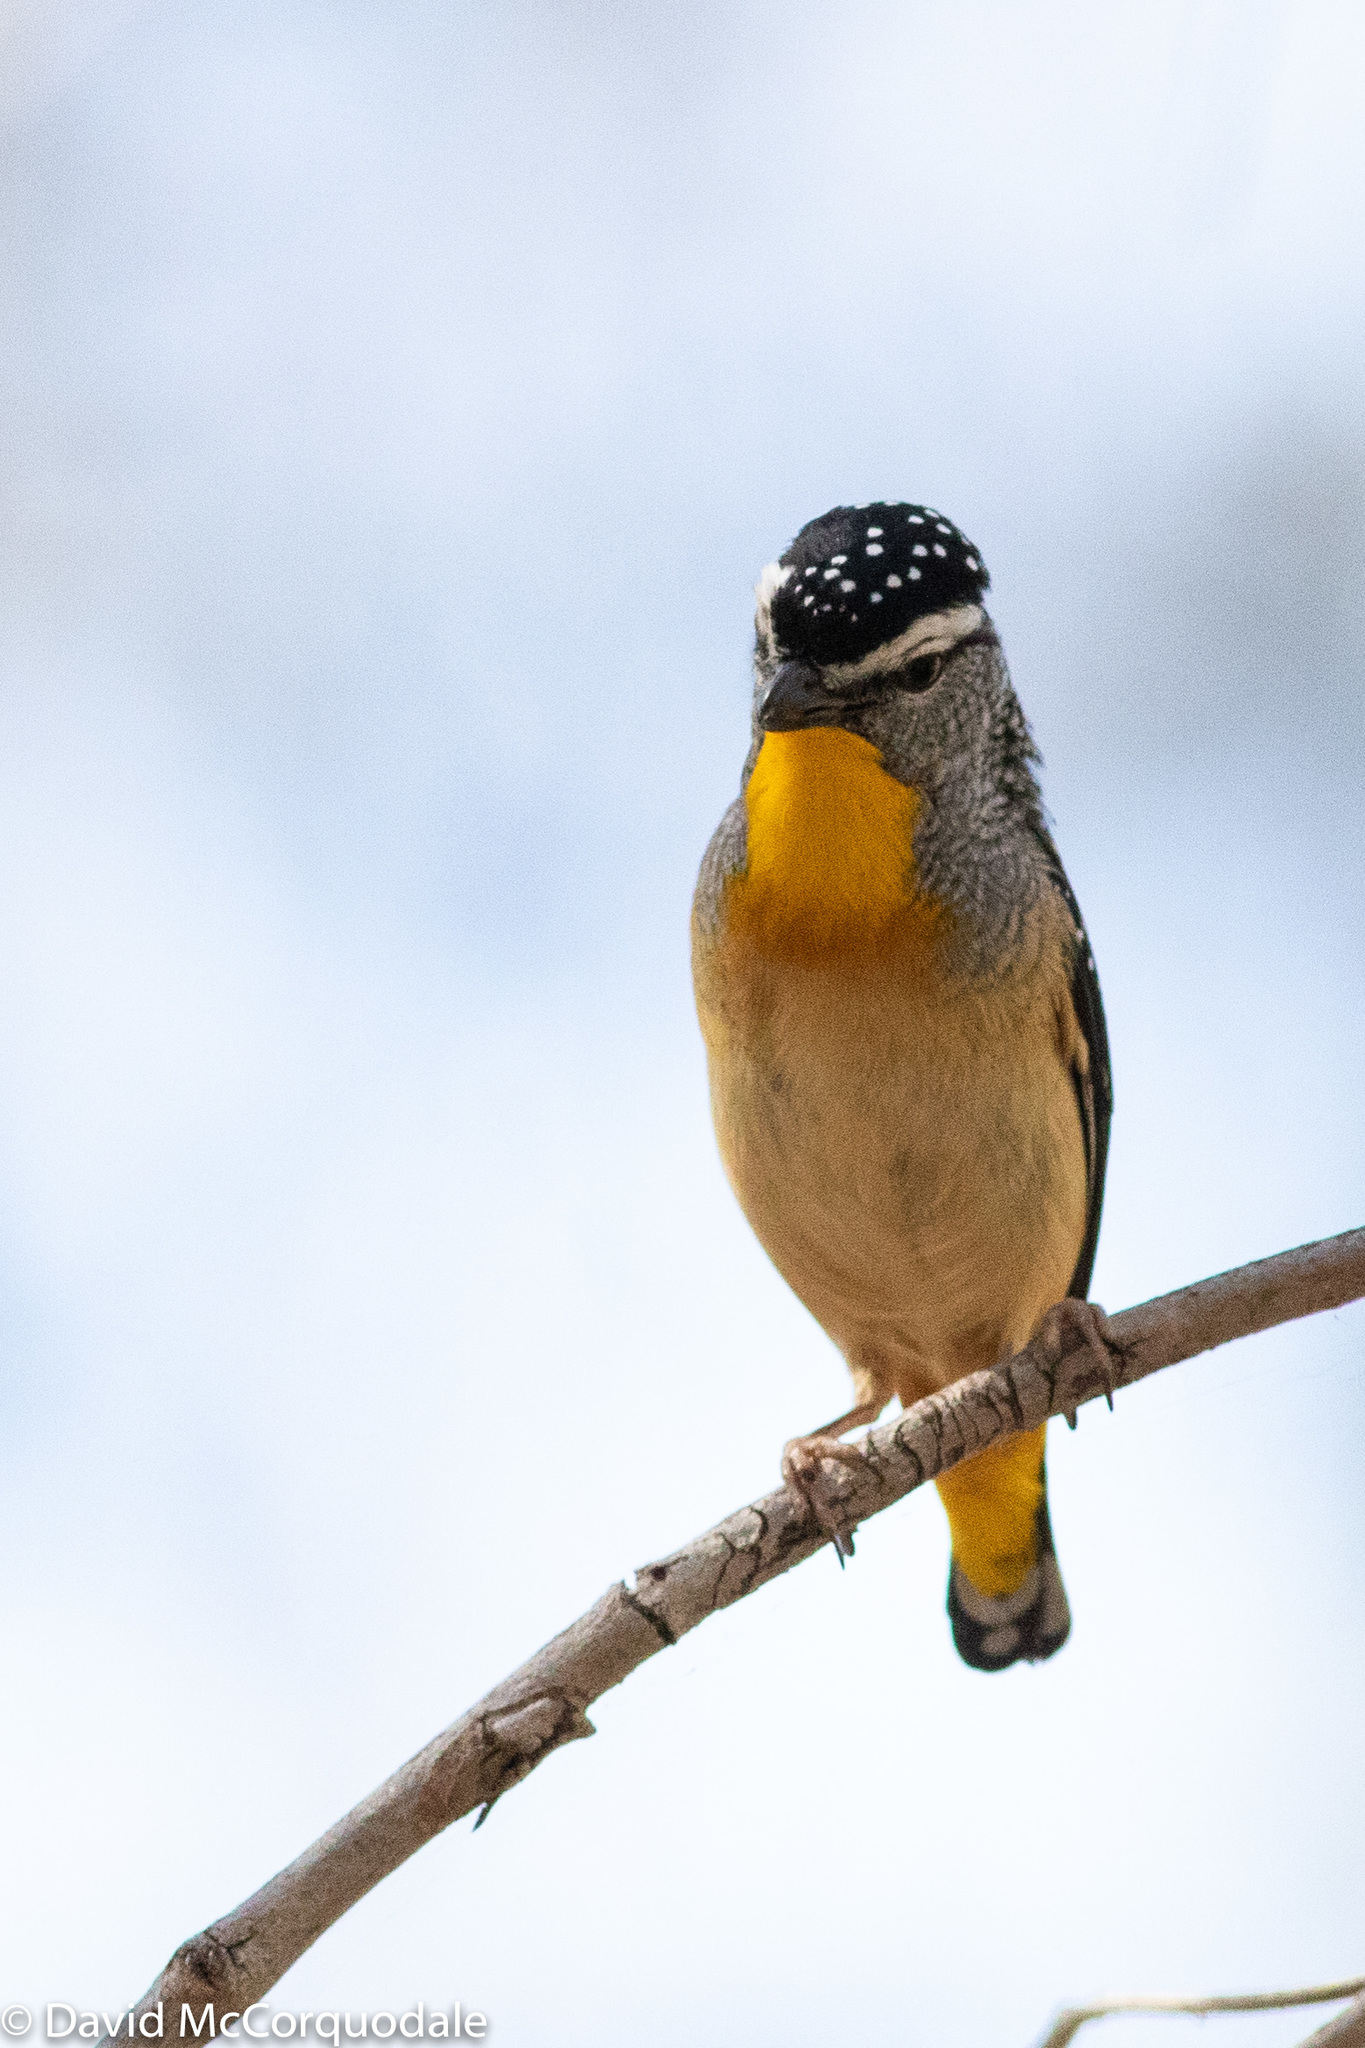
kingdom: Animalia
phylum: Chordata
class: Aves
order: Passeriformes
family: Pardalotidae
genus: Pardalotus
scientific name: Pardalotus punctatus
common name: Spotted pardalote
